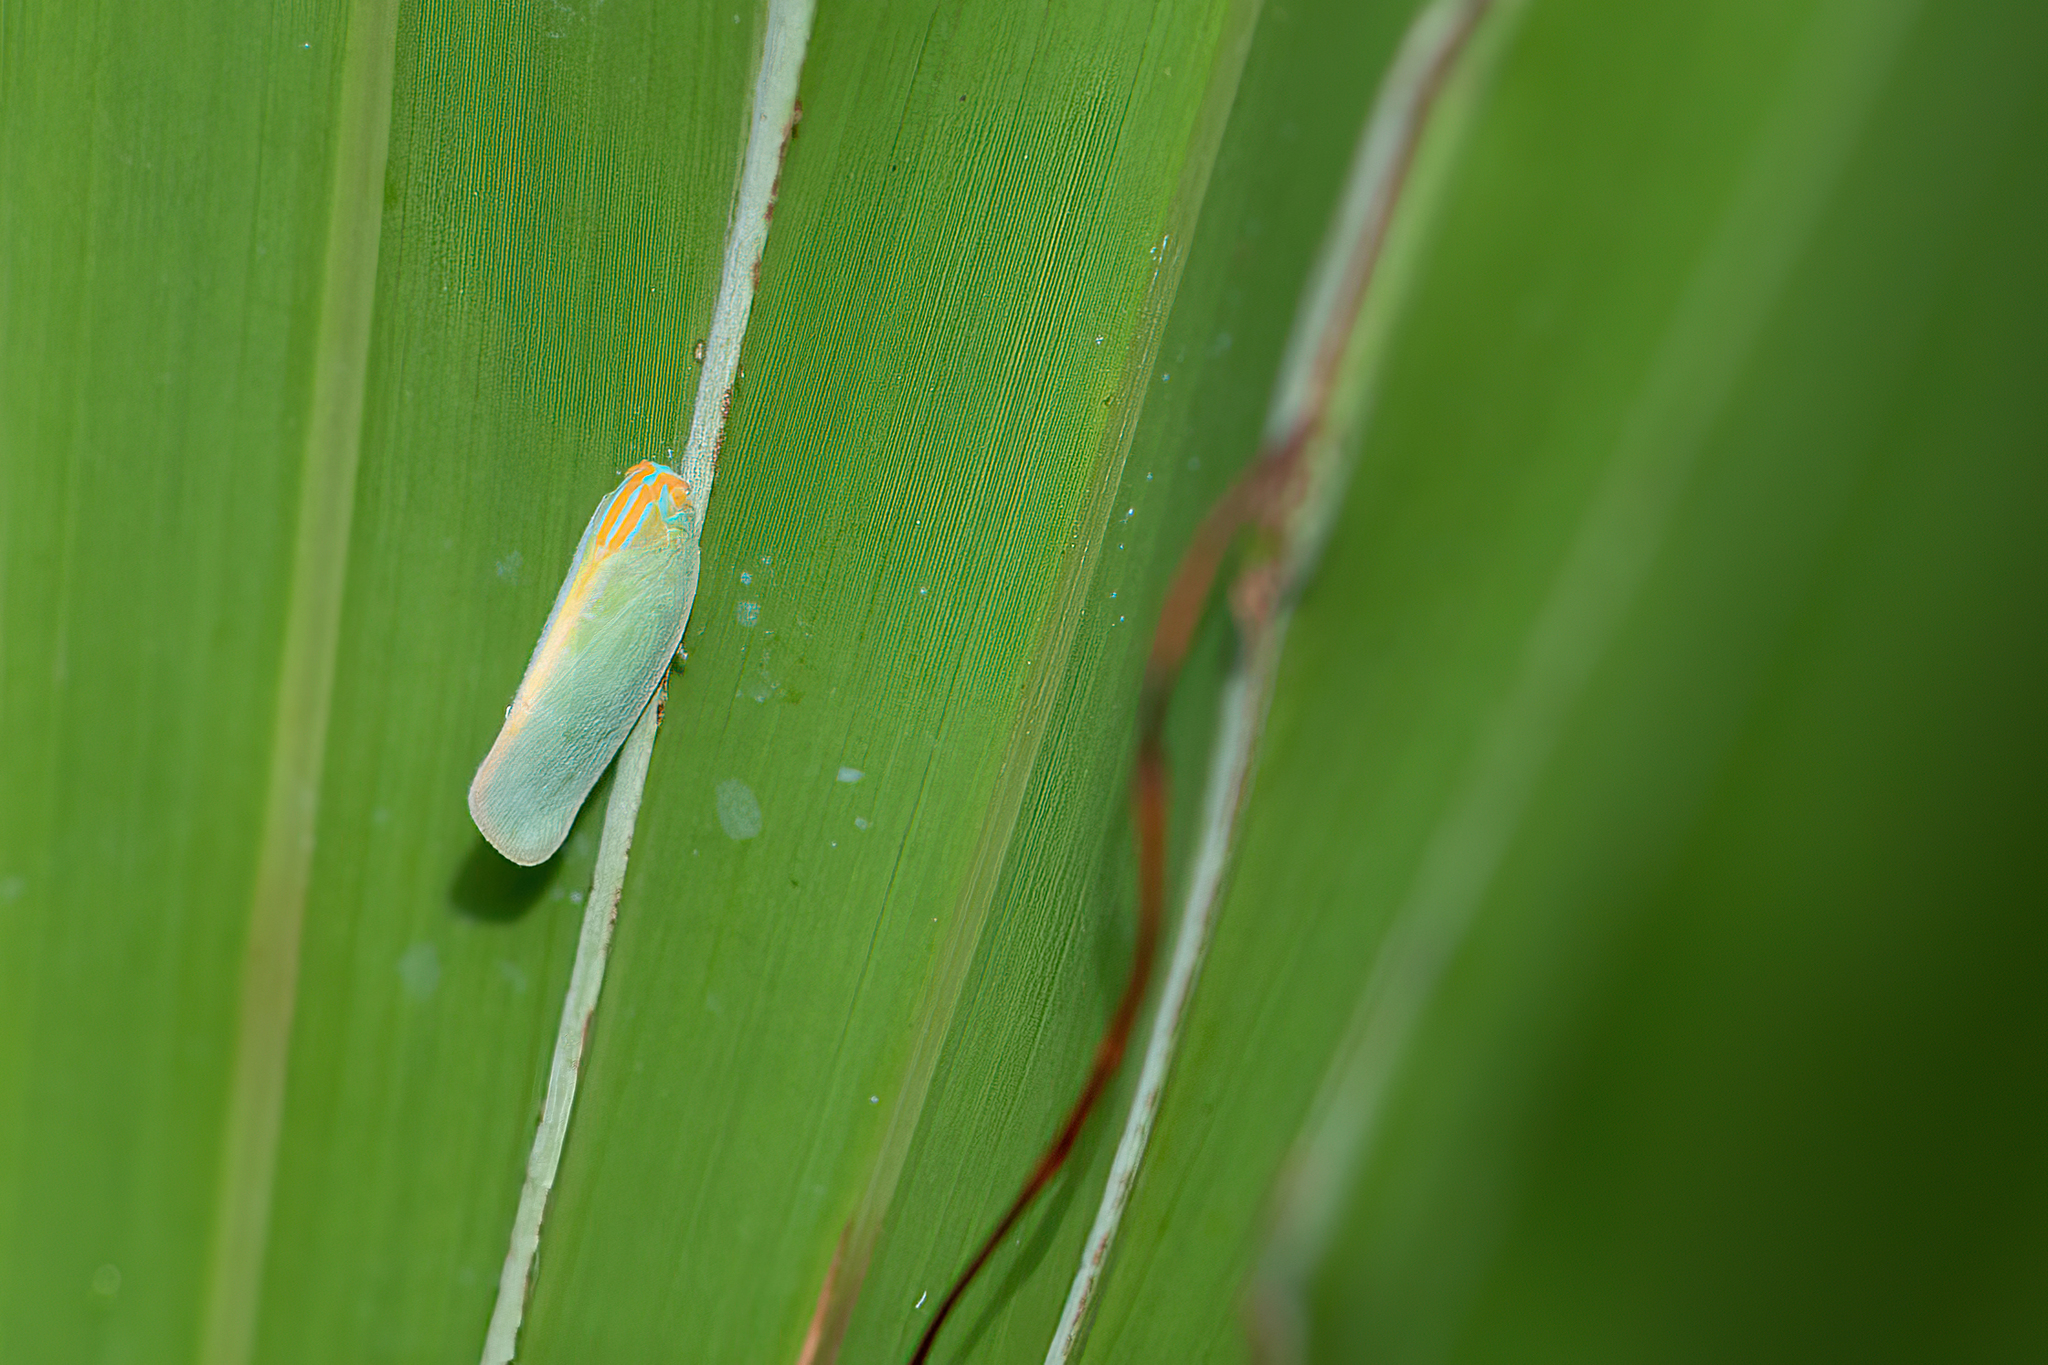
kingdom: Animalia
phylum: Arthropoda
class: Insecta
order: Hemiptera
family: Flatidae
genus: Ormenaria
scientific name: Ormenaria rufifascia
